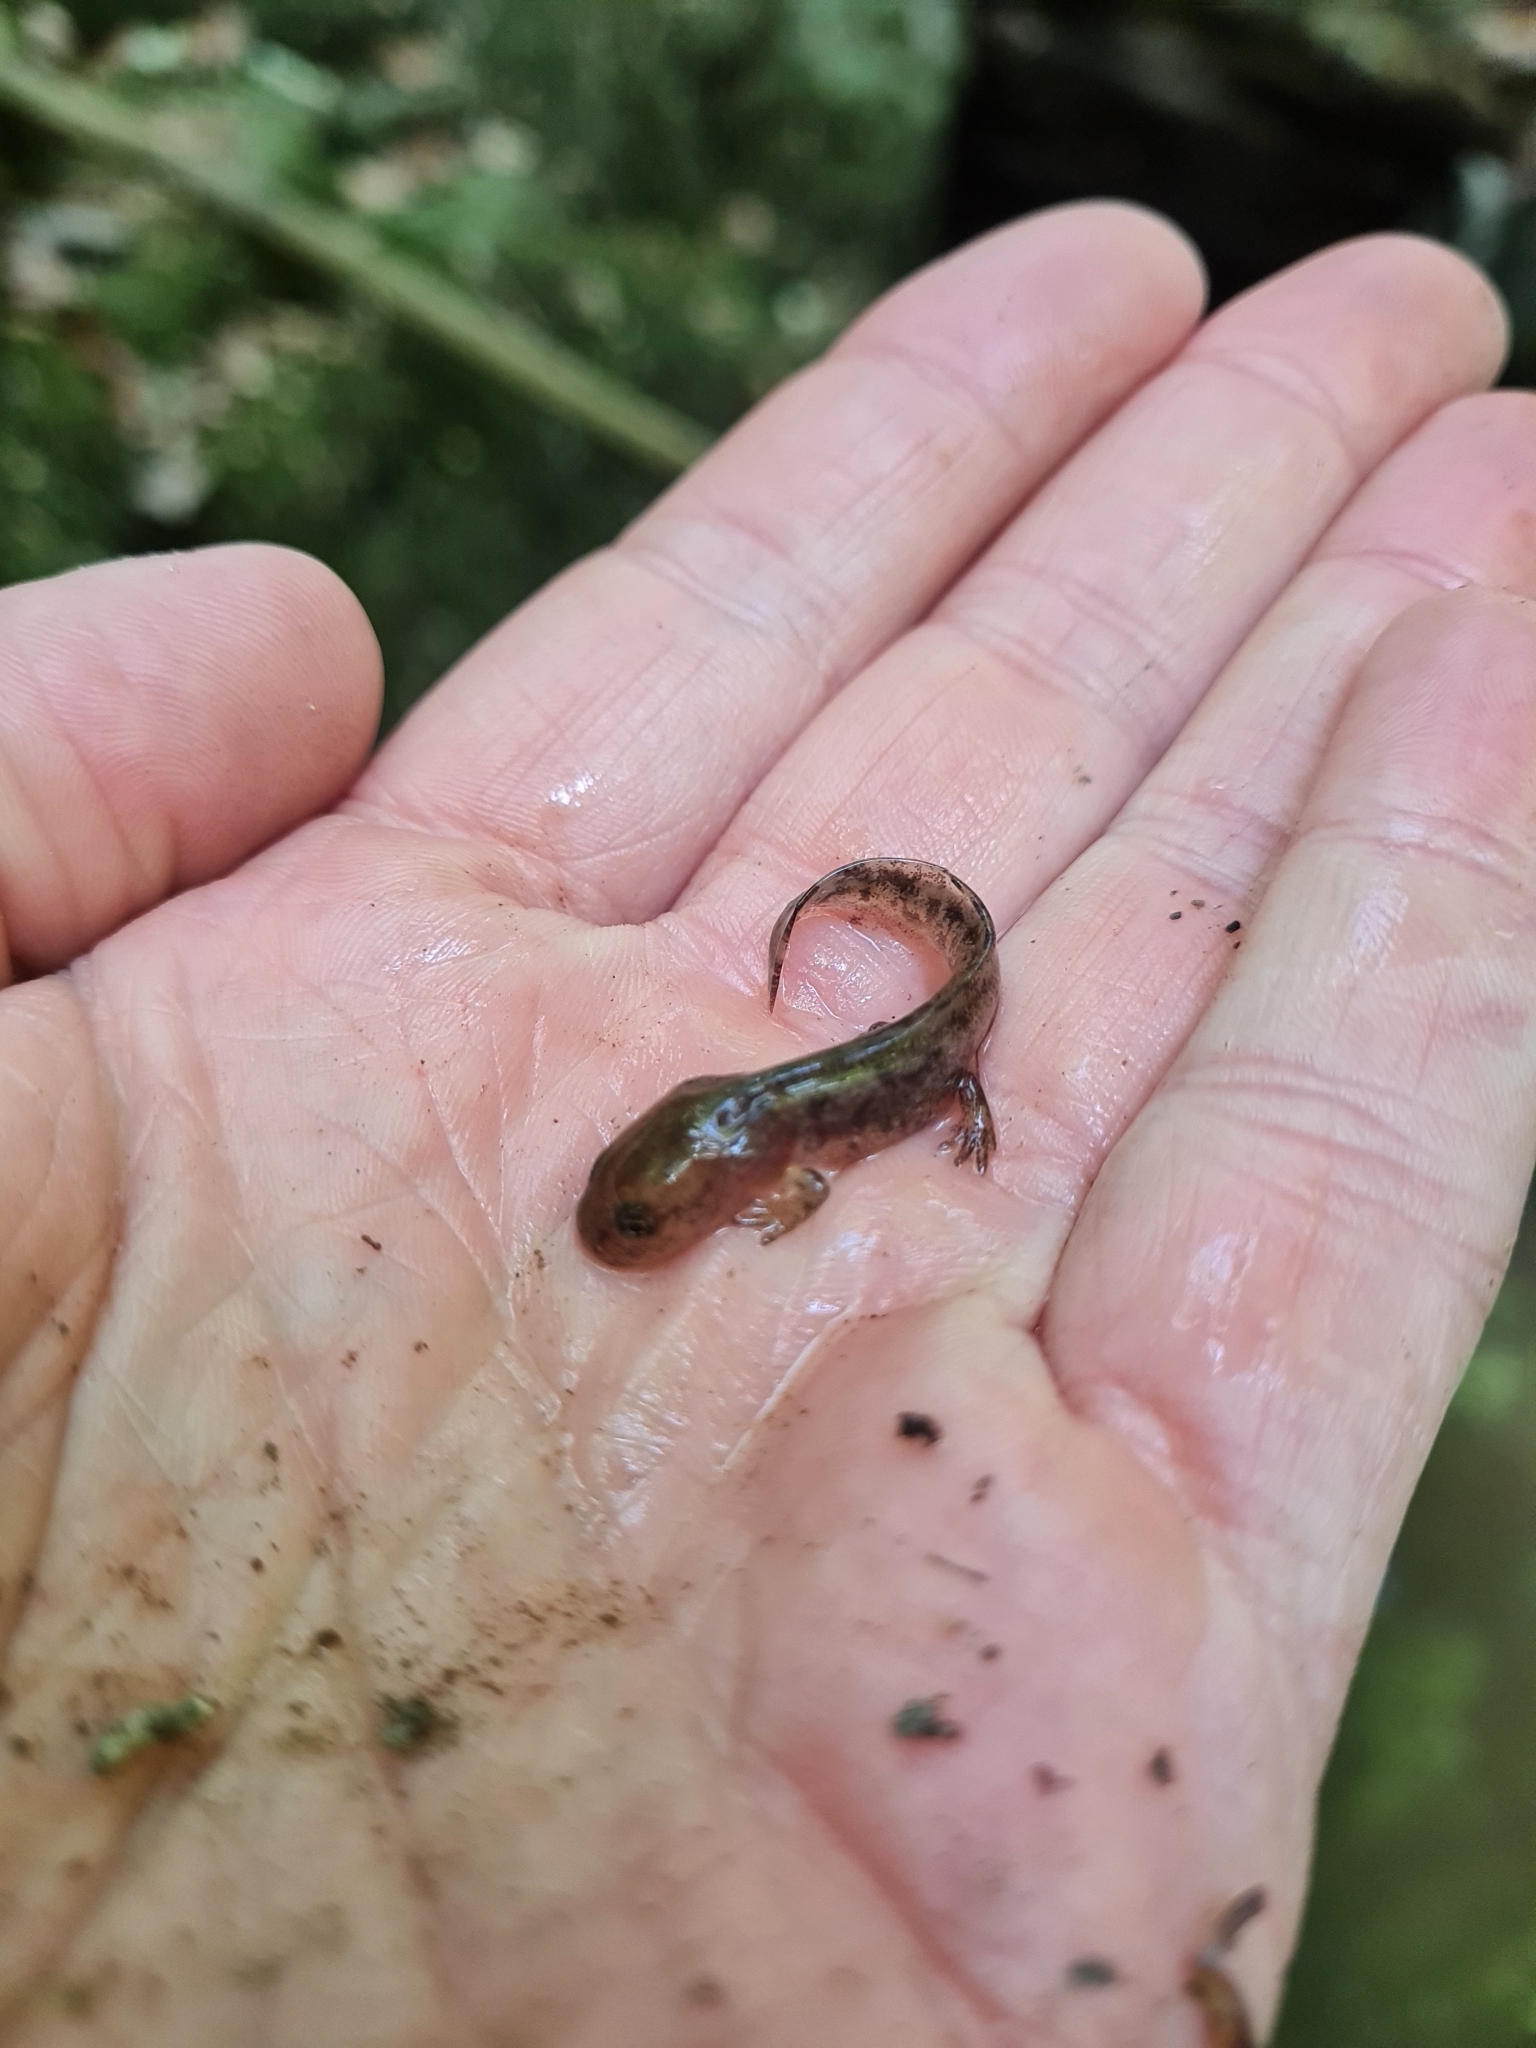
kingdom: Animalia
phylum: Chordata
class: Amphibia
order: Caudata
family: Salamandridae
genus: Salamandra
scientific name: Salamandra salamandra
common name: Fire salamander
